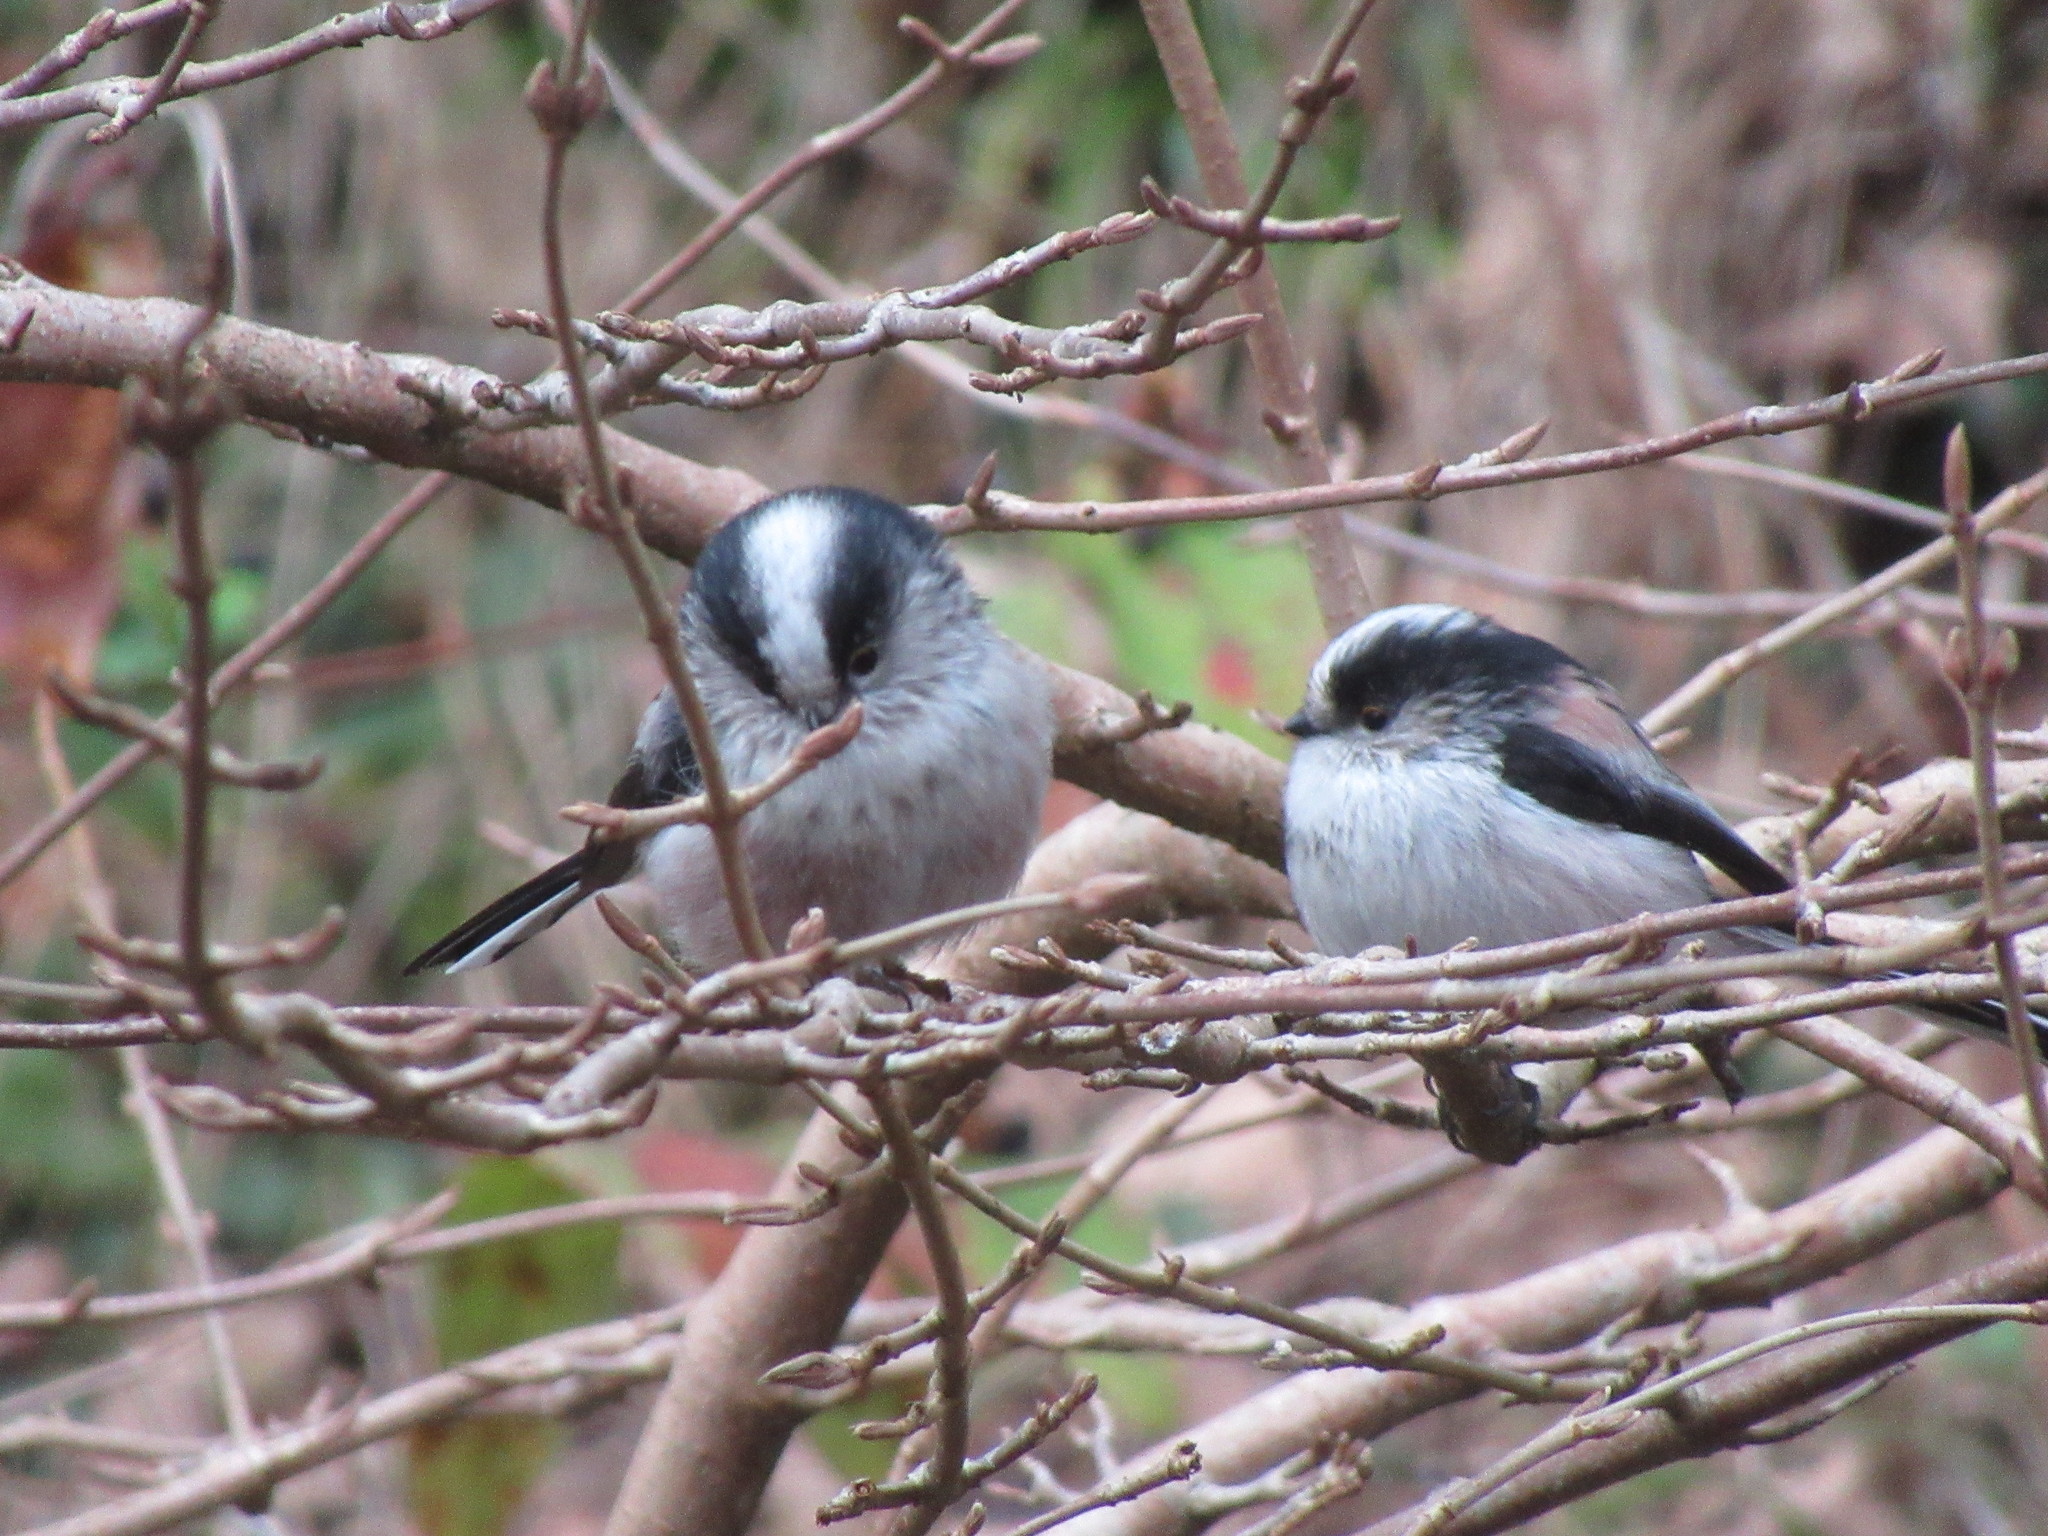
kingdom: Animalia
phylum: Chordata
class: Aves
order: Passeriformes
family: Aegithalidae
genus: Aegithalos
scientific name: Aegithalos caudatus
